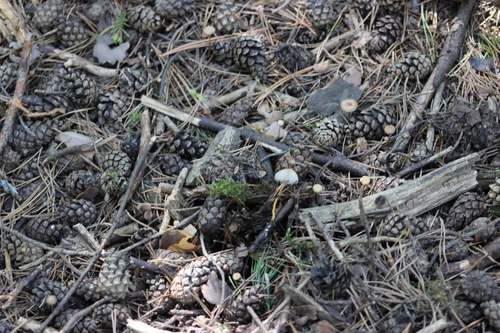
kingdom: Fungi
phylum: Basidiomycota
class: Agaricomycetes
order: Agaricales
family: Physalacriaceae
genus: Strobilurus
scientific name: Strobilurus stephanocystis
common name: Russian conecap
